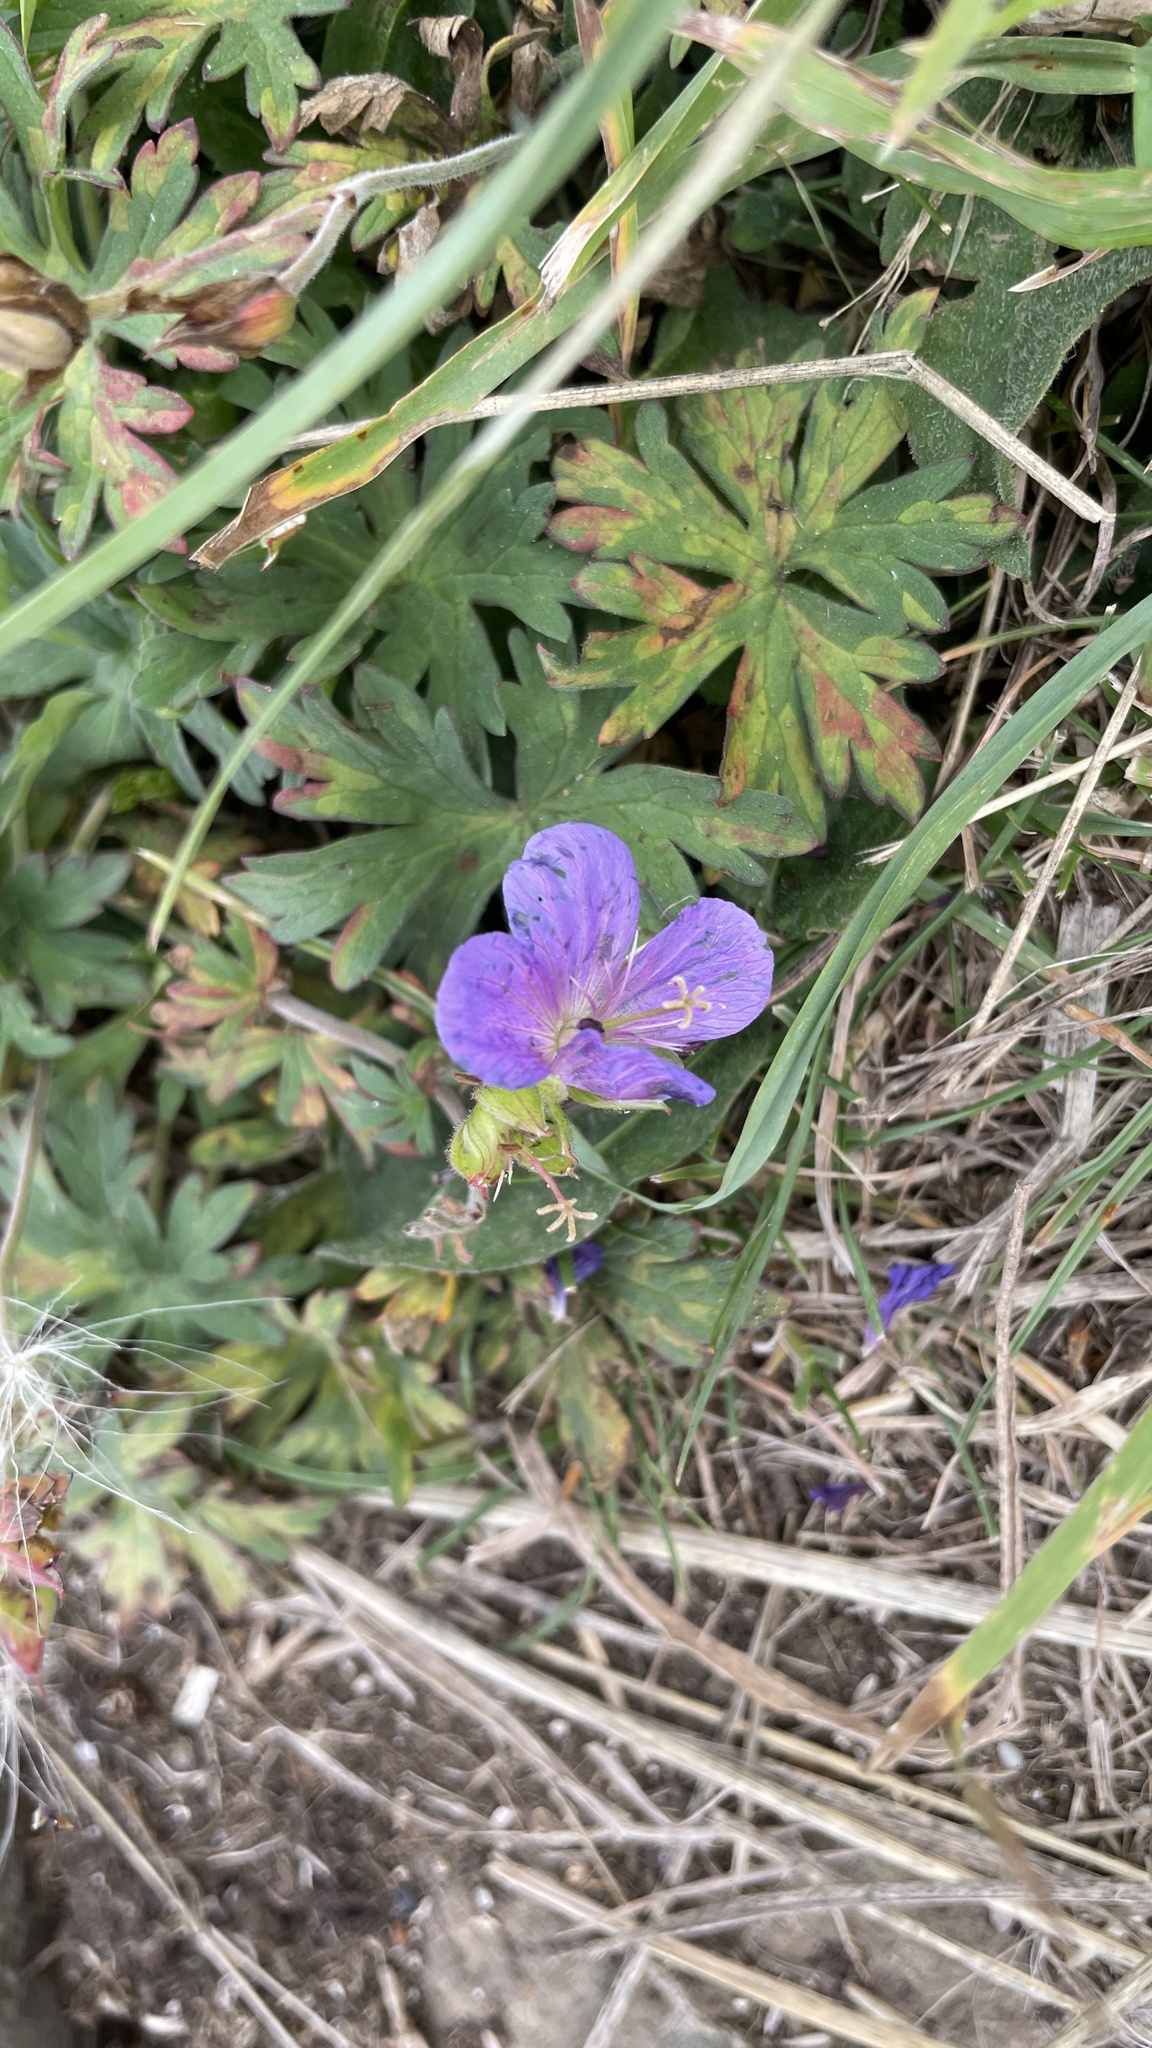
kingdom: Plantae
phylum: Tracheophyta
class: Magnoliopsida
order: Geraniales
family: Geraniaceae
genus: Geranium
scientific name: Geranium pratense
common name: Meadow crane's-bill
